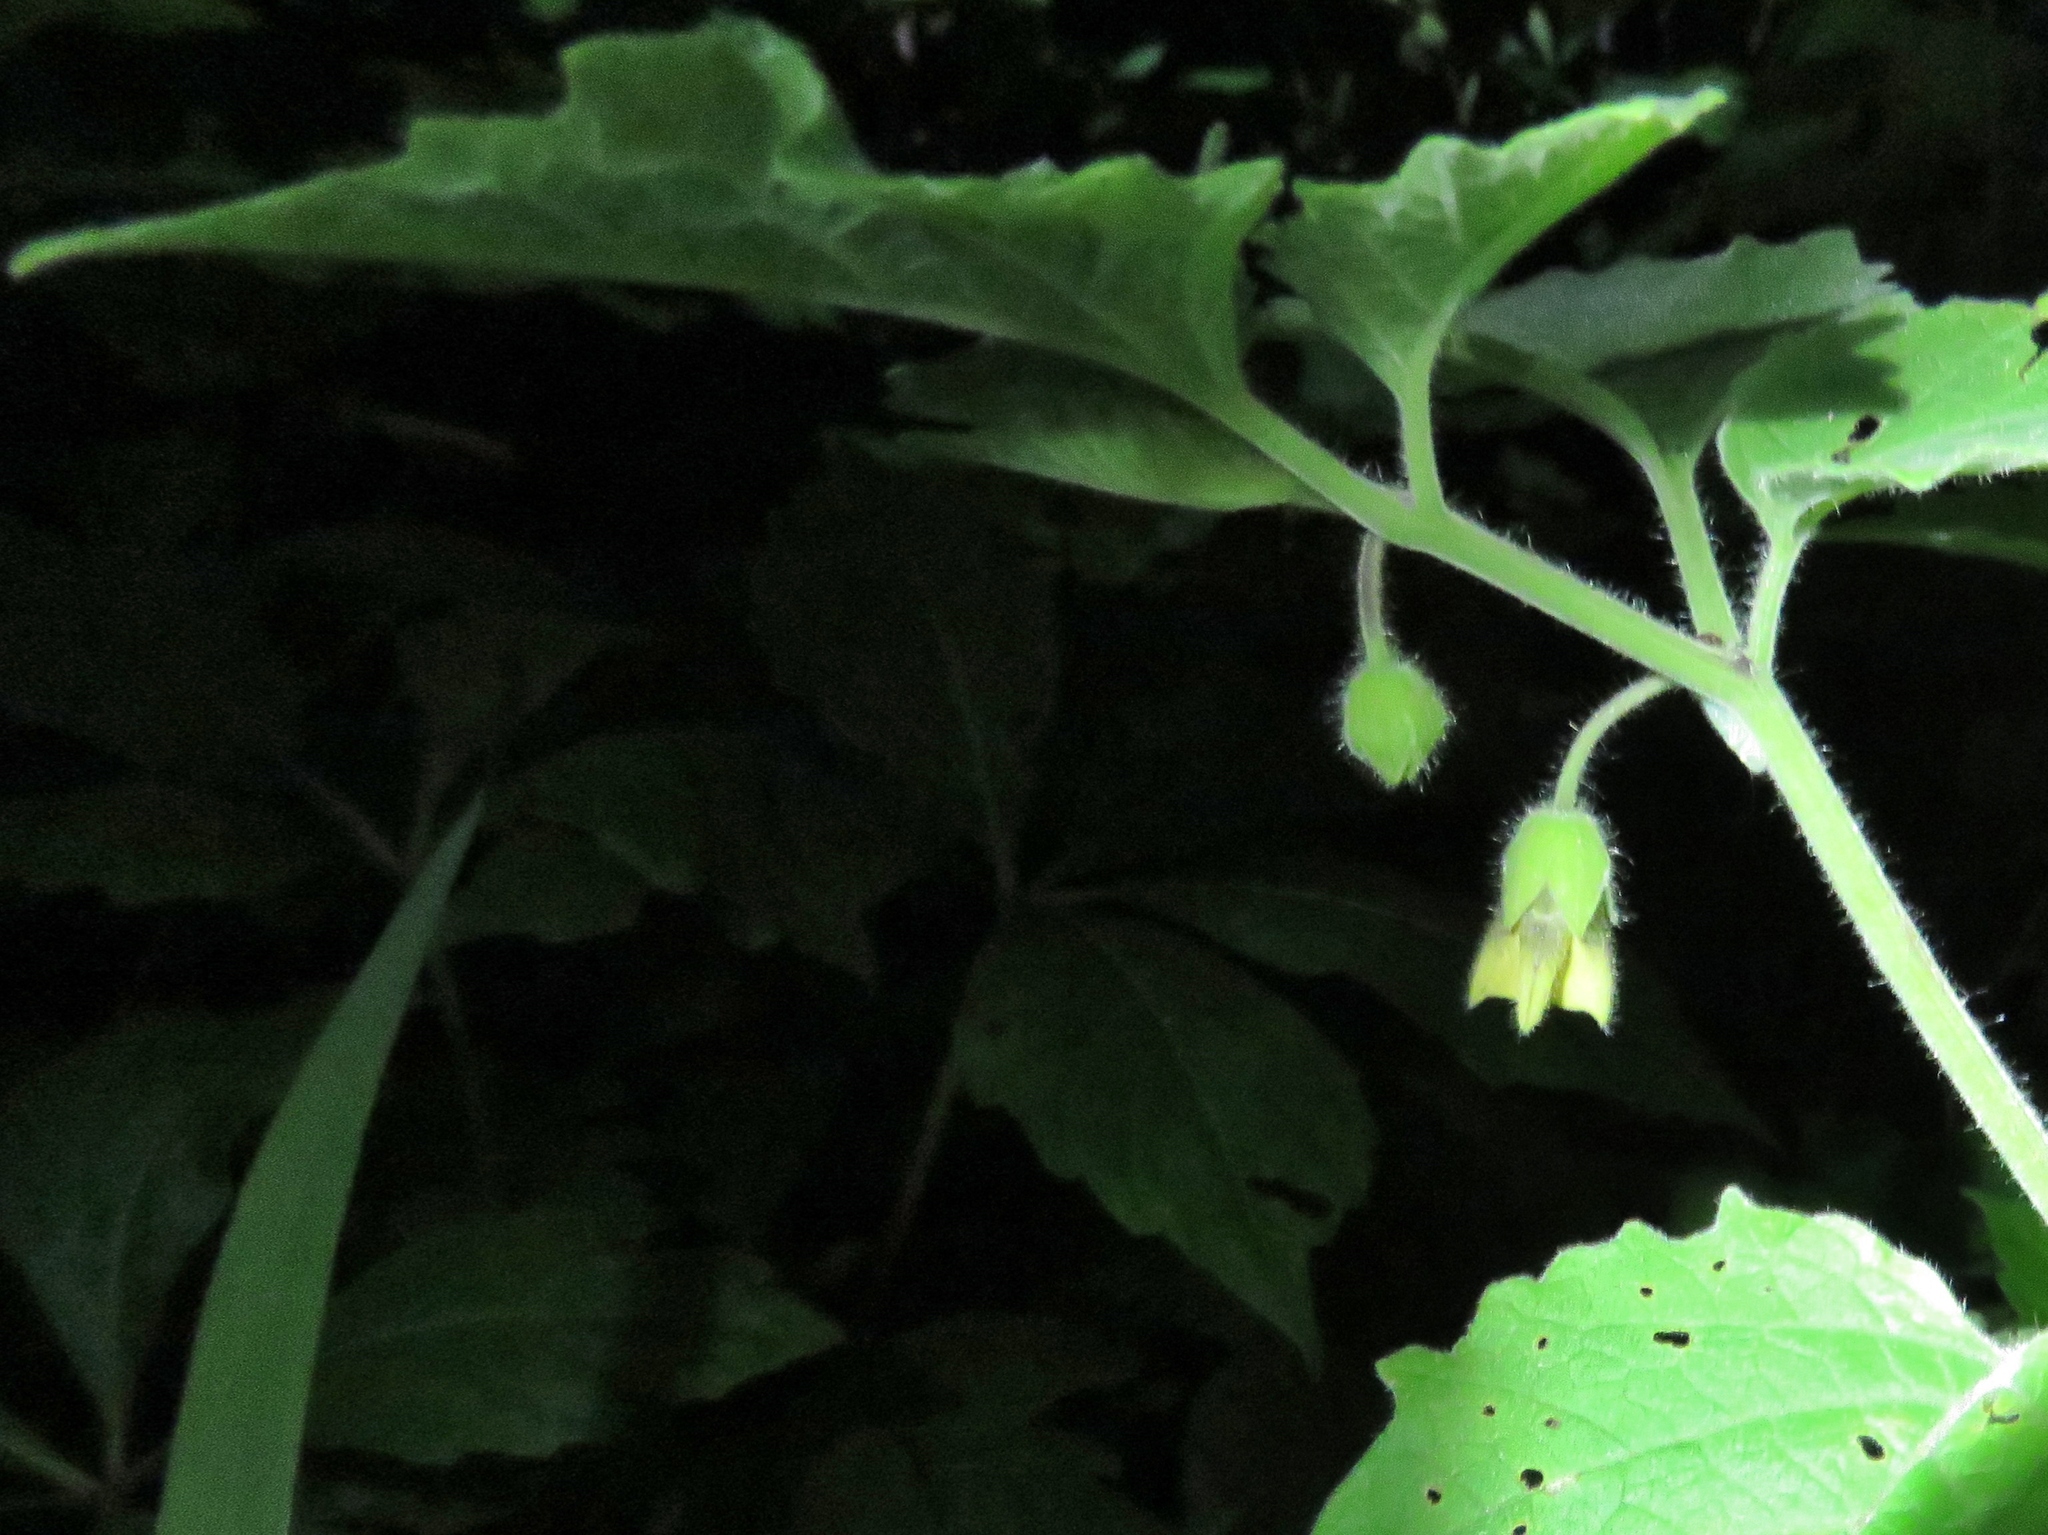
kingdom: Plantae
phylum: Tracheophyta
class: Magnoliopsida
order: Solanales
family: Solanaceae
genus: Physalis
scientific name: Physalis heterophylla
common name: Clammy ground-cherry
